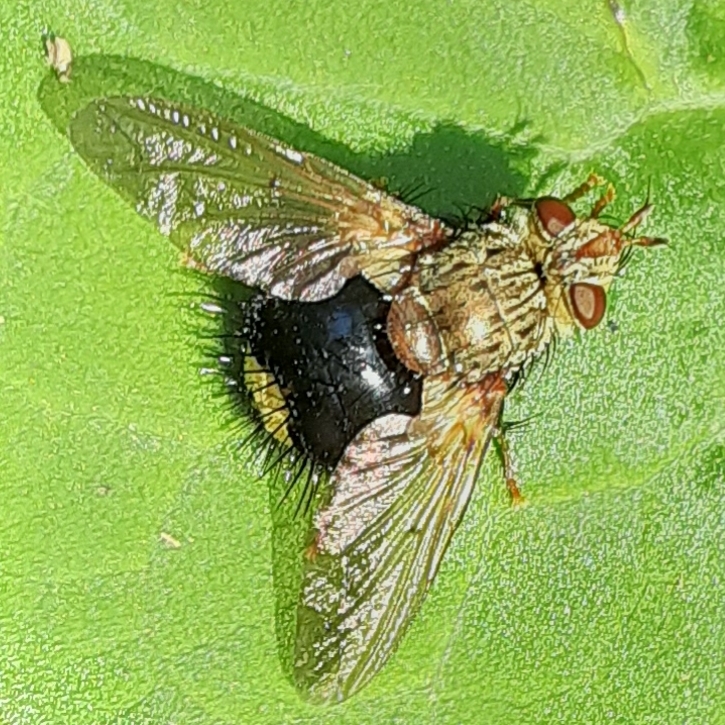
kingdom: Animalia
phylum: Arthropoda
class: Insecta
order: Diptera
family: Tachinidae
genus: Epalpus
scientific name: Epalpus signifer
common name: Early tachinid fly
